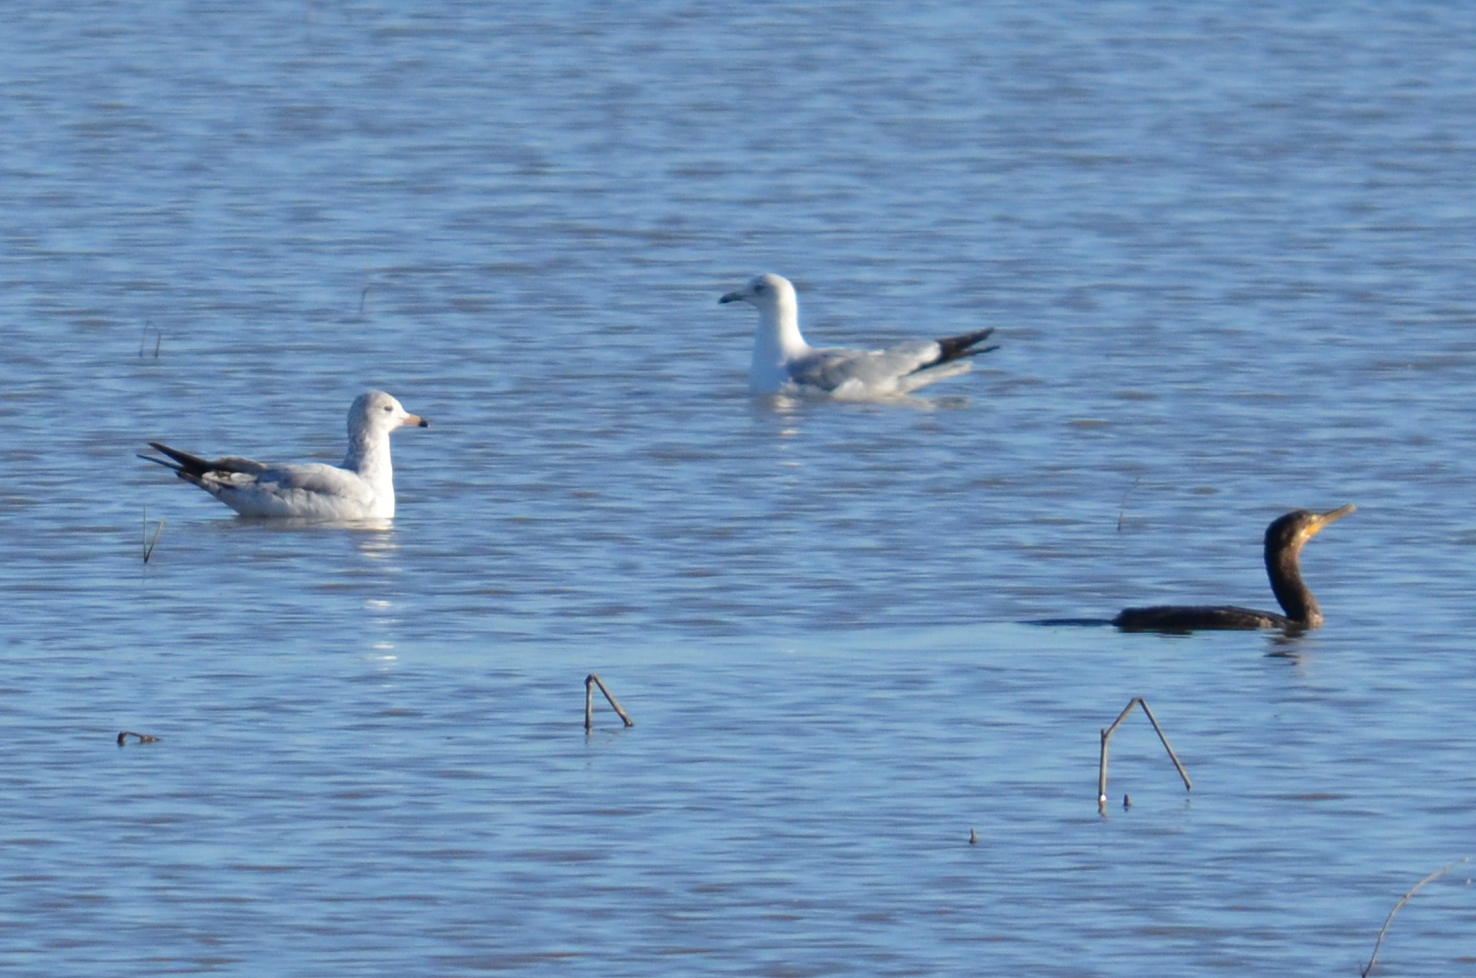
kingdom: Animalia
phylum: Chordata
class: Aves
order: Charadriiformes
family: Laridae
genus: Larus
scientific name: Larus delawarensis
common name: Ring-billed gull
